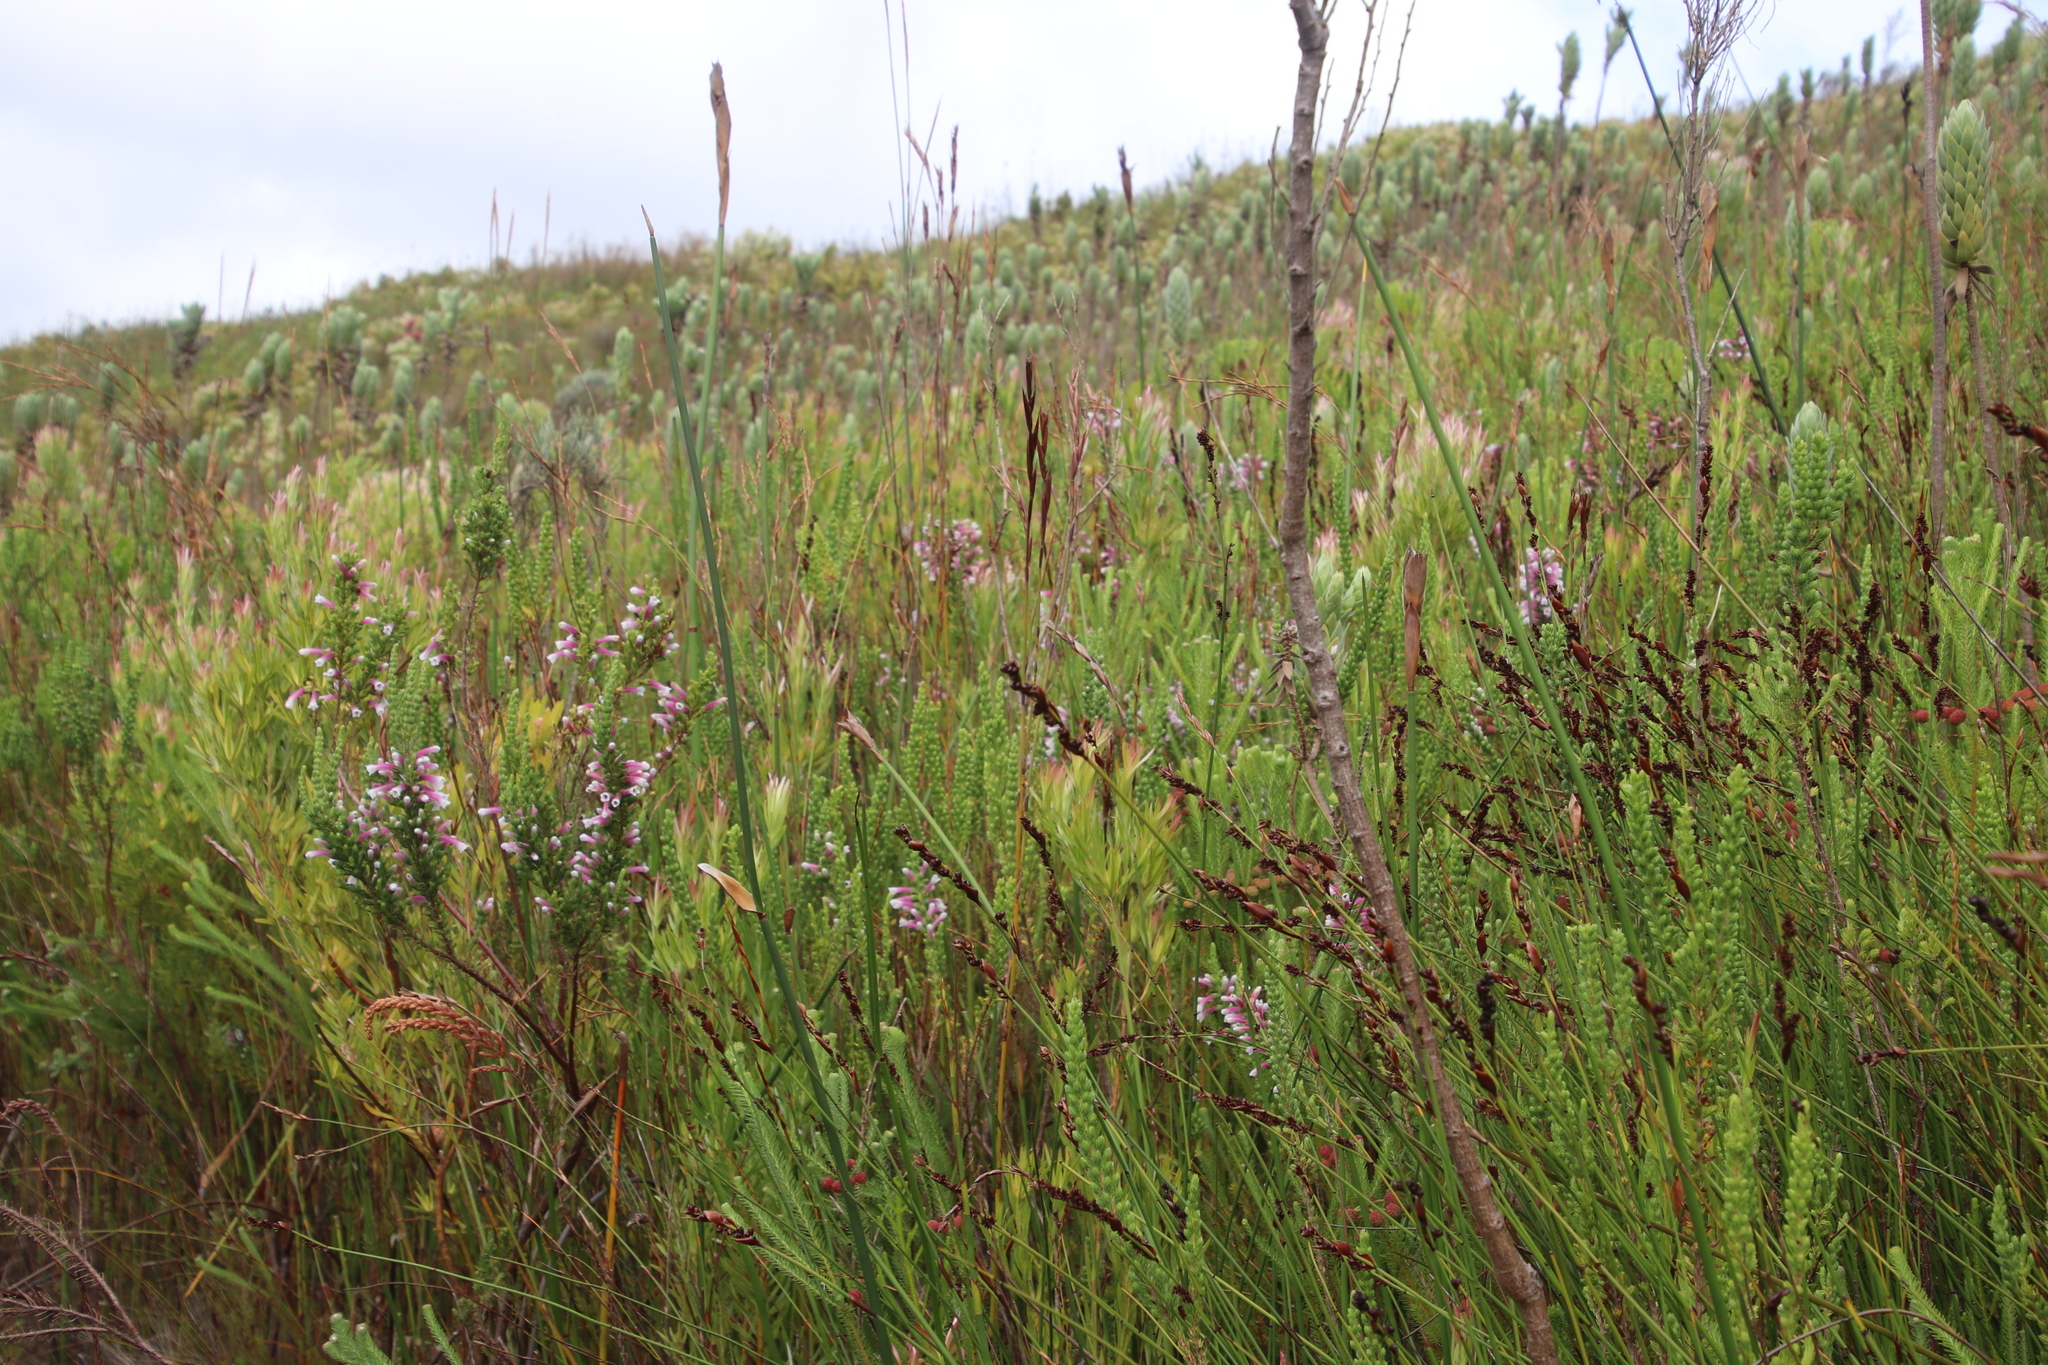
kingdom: Plantae
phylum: Tracheophyta
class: Magnoliopsida
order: Ericales
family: Ericaceae
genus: Erica
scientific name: Erica macowanii
